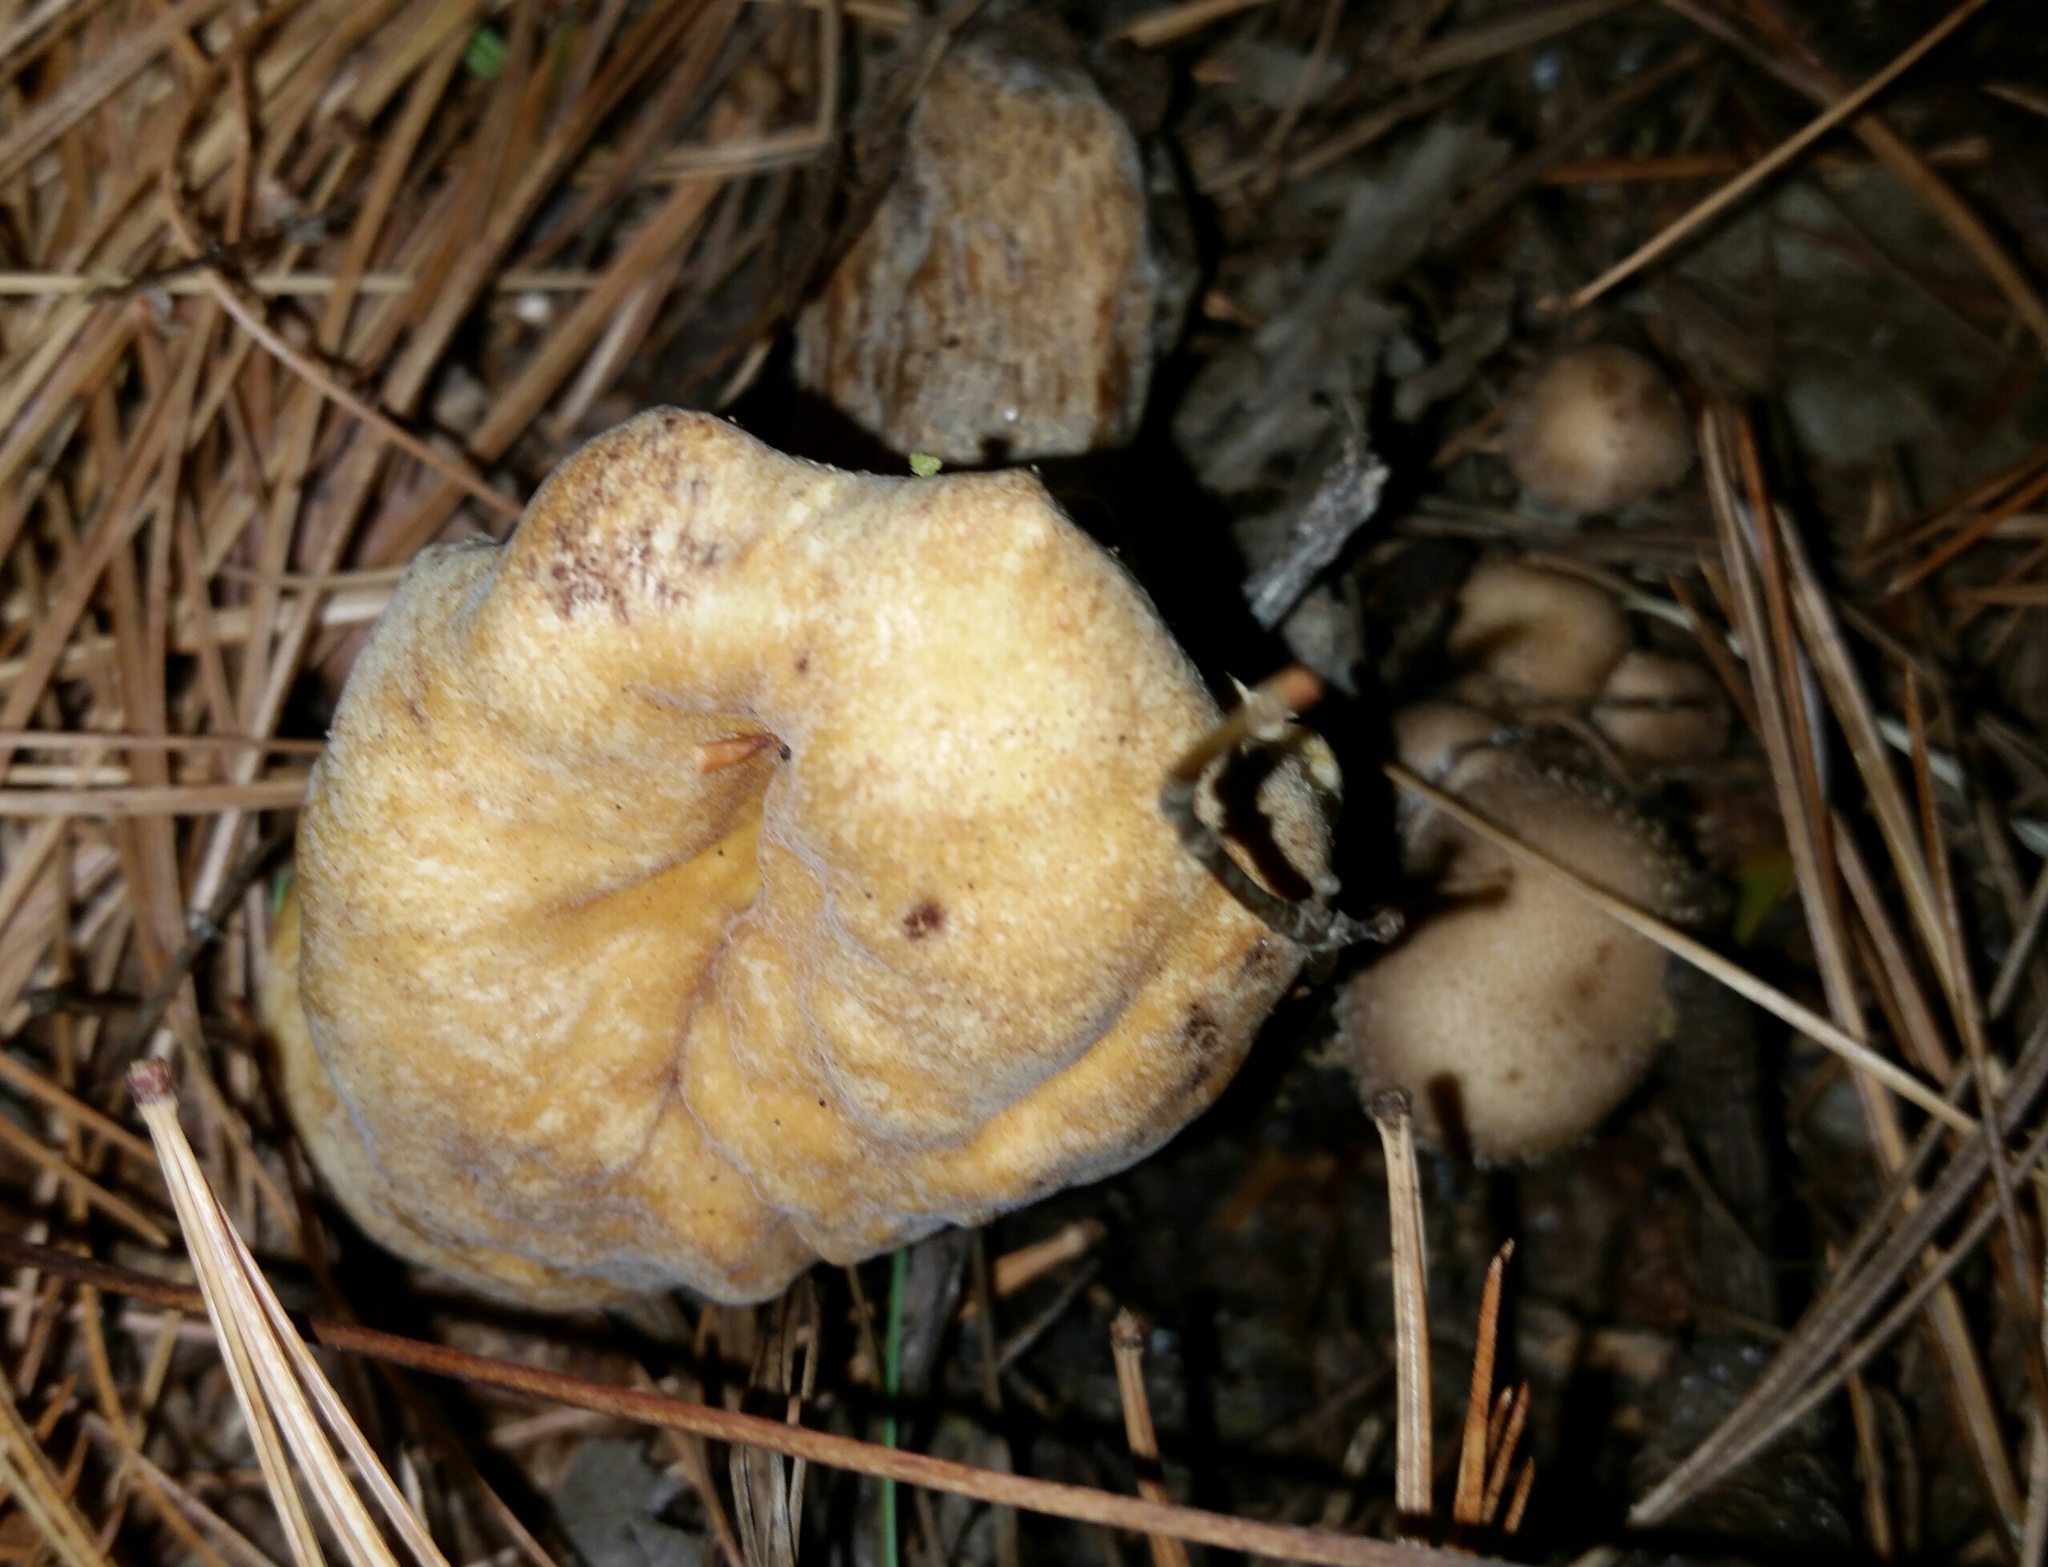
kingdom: Fungi
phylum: Ascomycota
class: Sordariomycetes
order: Hypocreales
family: Hypocreaceae
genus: Hypomyces
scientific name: Hypomyces succineus
